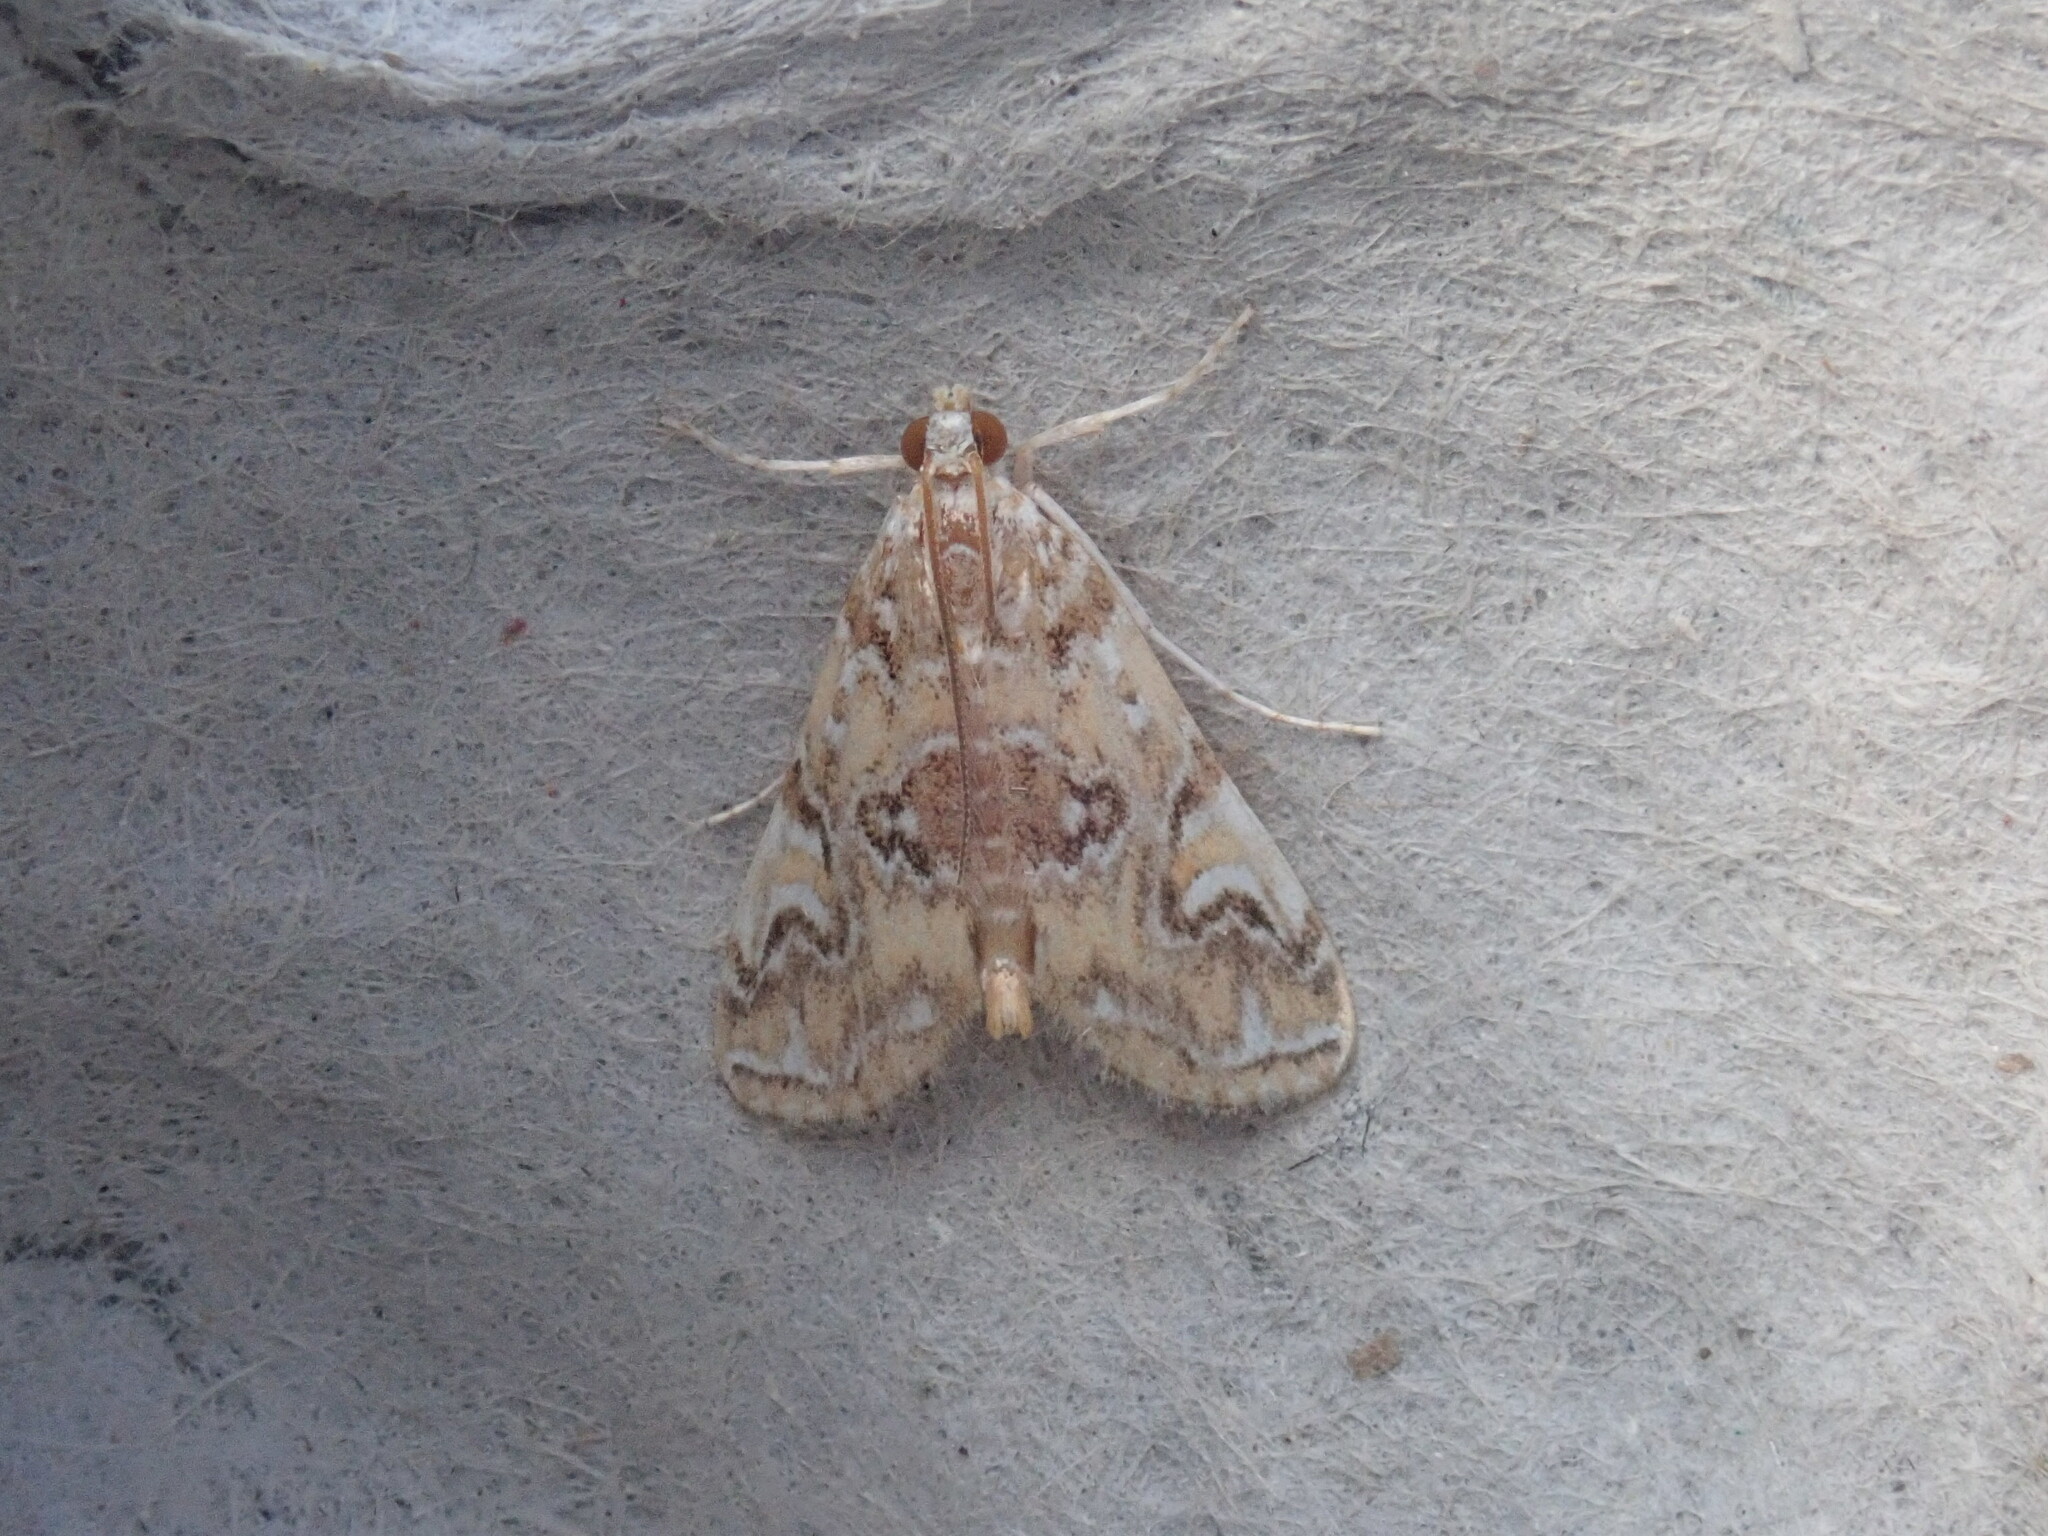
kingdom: Animalia
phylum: Arthropoda
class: Insecta
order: Lepidoptera
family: Crambidae
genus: Elophila
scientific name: Elophila gyralis
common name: Waterlily borer moth
